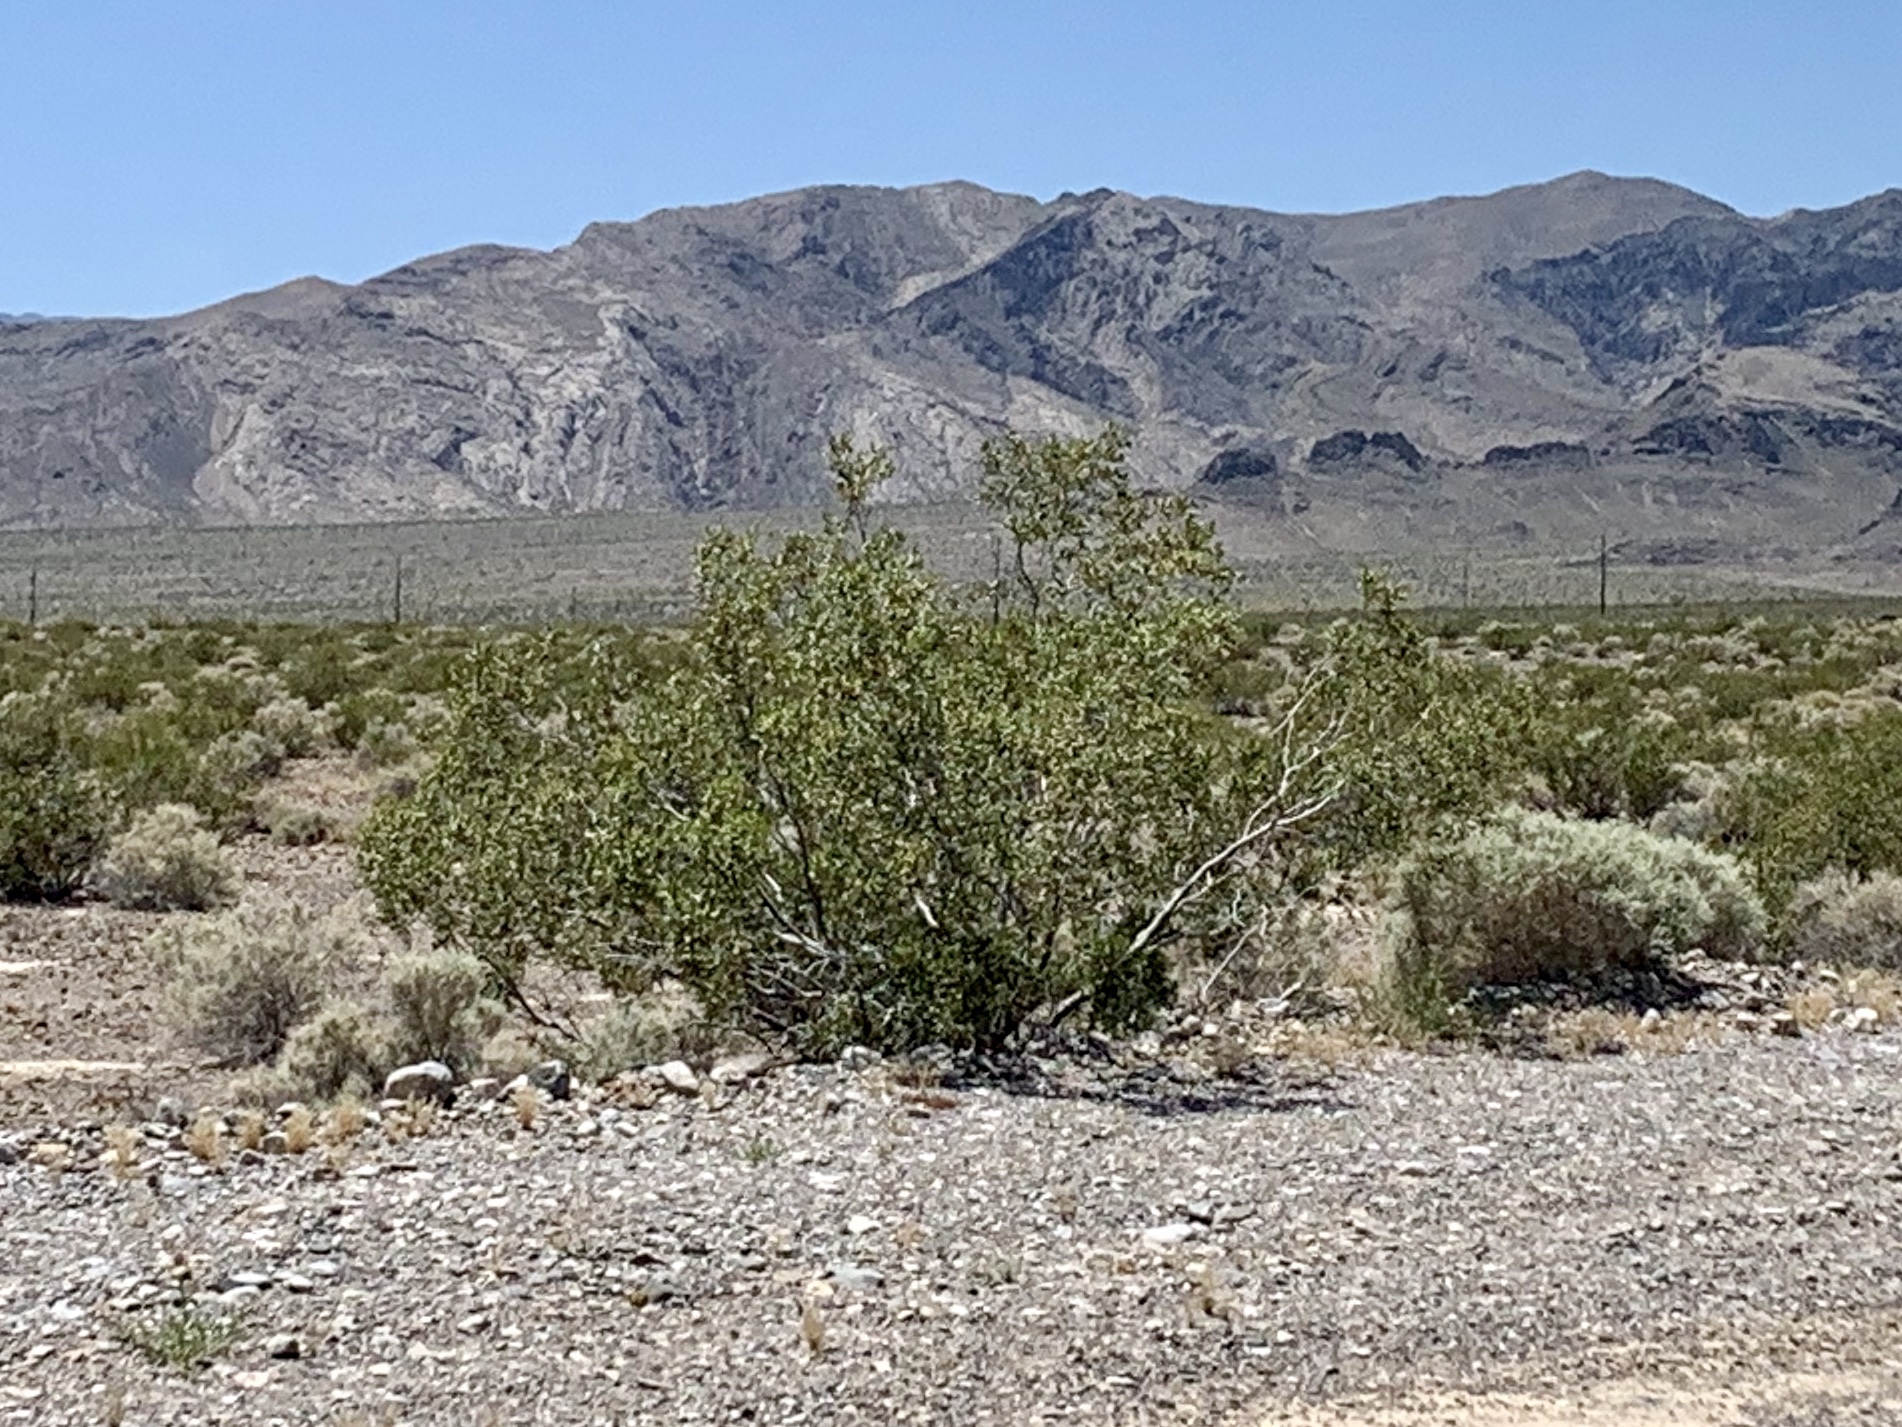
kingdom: Plantae
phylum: Tracheophyta
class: Magnoliopsida
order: Zygophyllales
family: Zygophyllaceae
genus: Larrea
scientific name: Larrea tridentata
